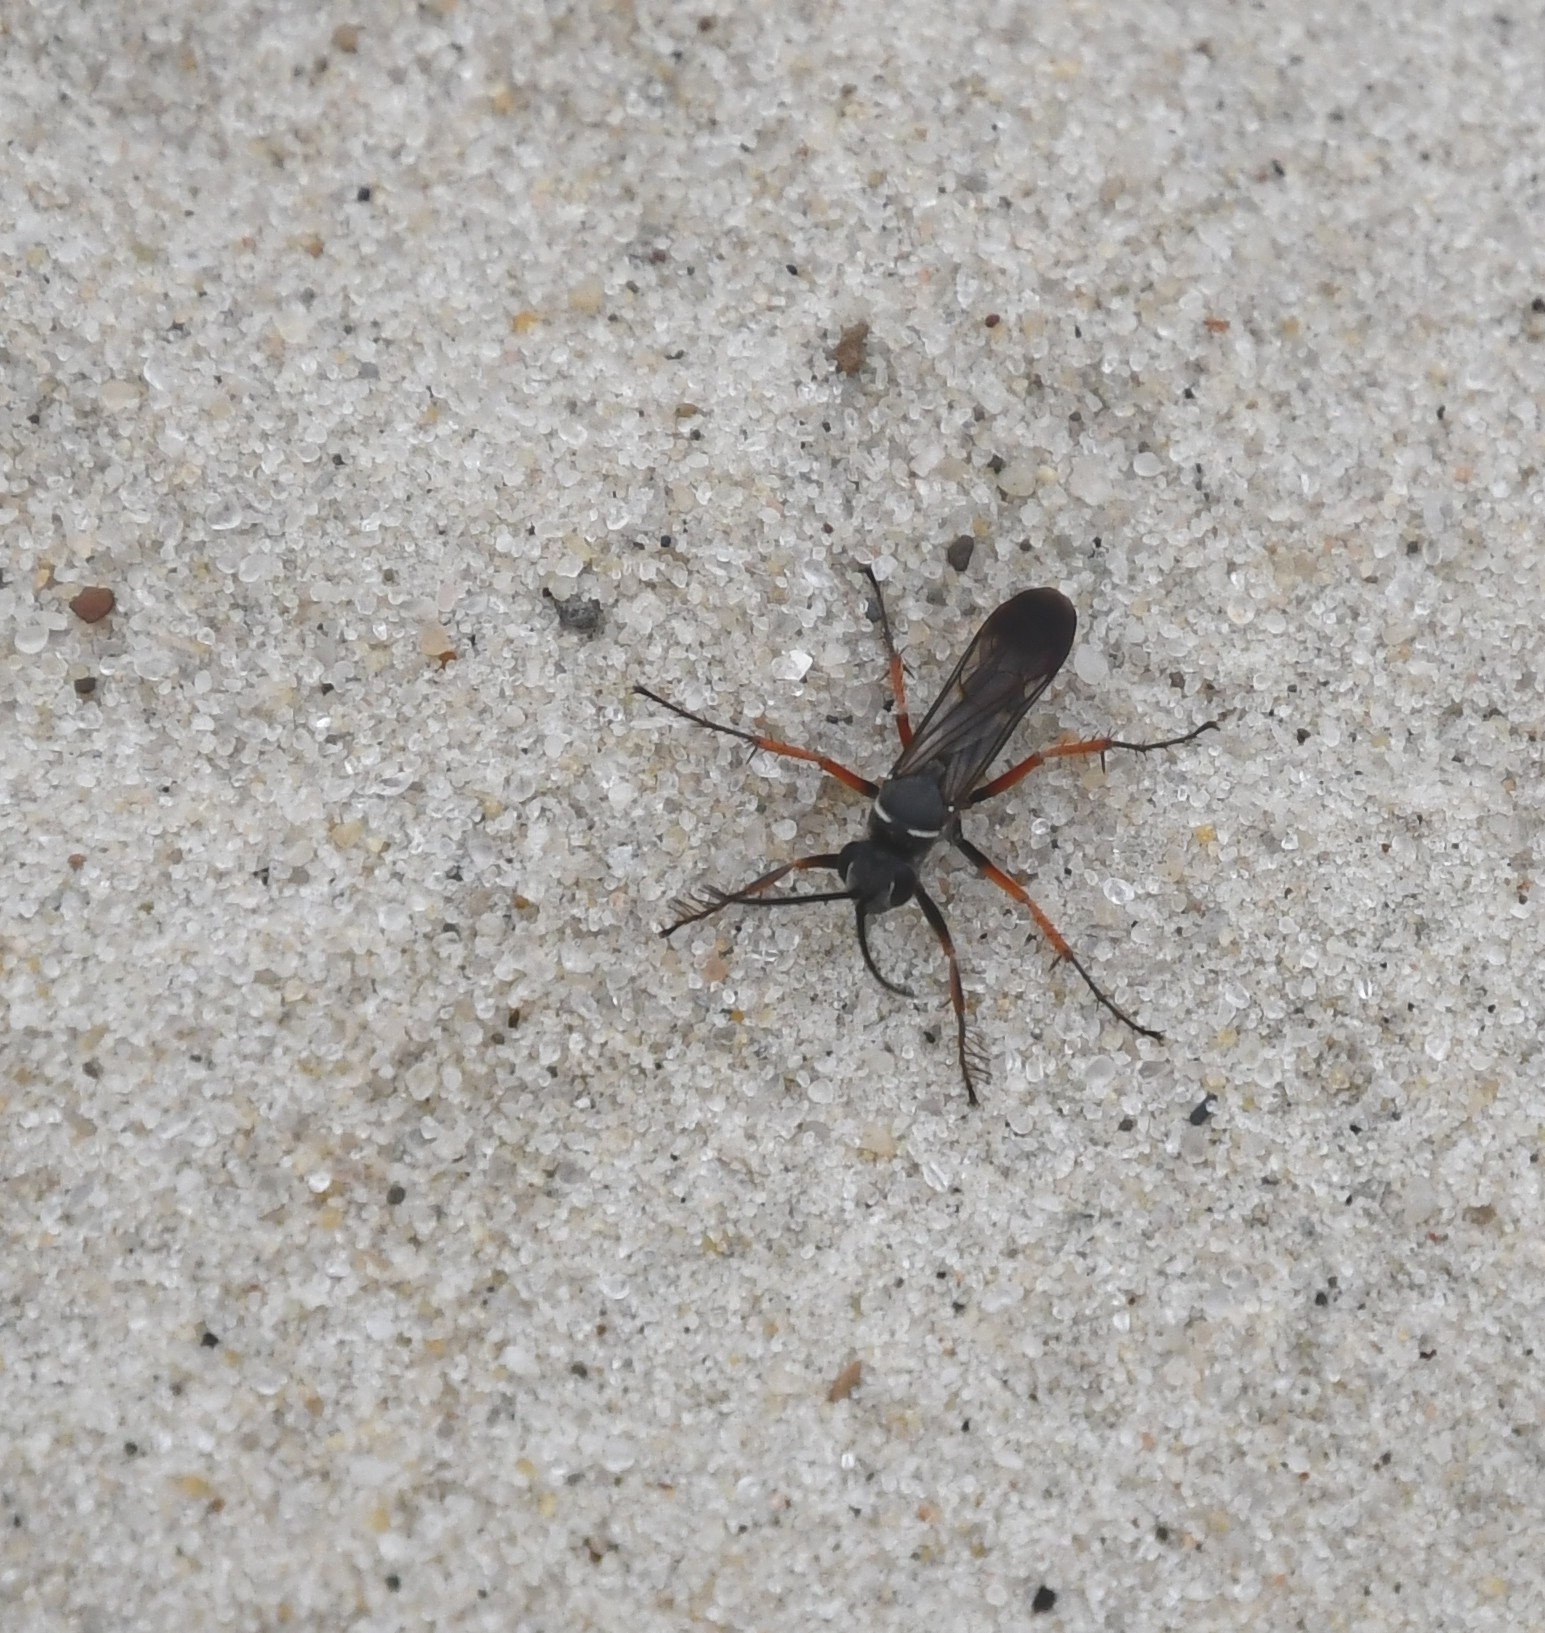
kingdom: Animalia
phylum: Arthropoda
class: Insecta
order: Hymenoptera
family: Pompilidae
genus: Episyron
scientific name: Episyron rufipes
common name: Red legged spider wasp
